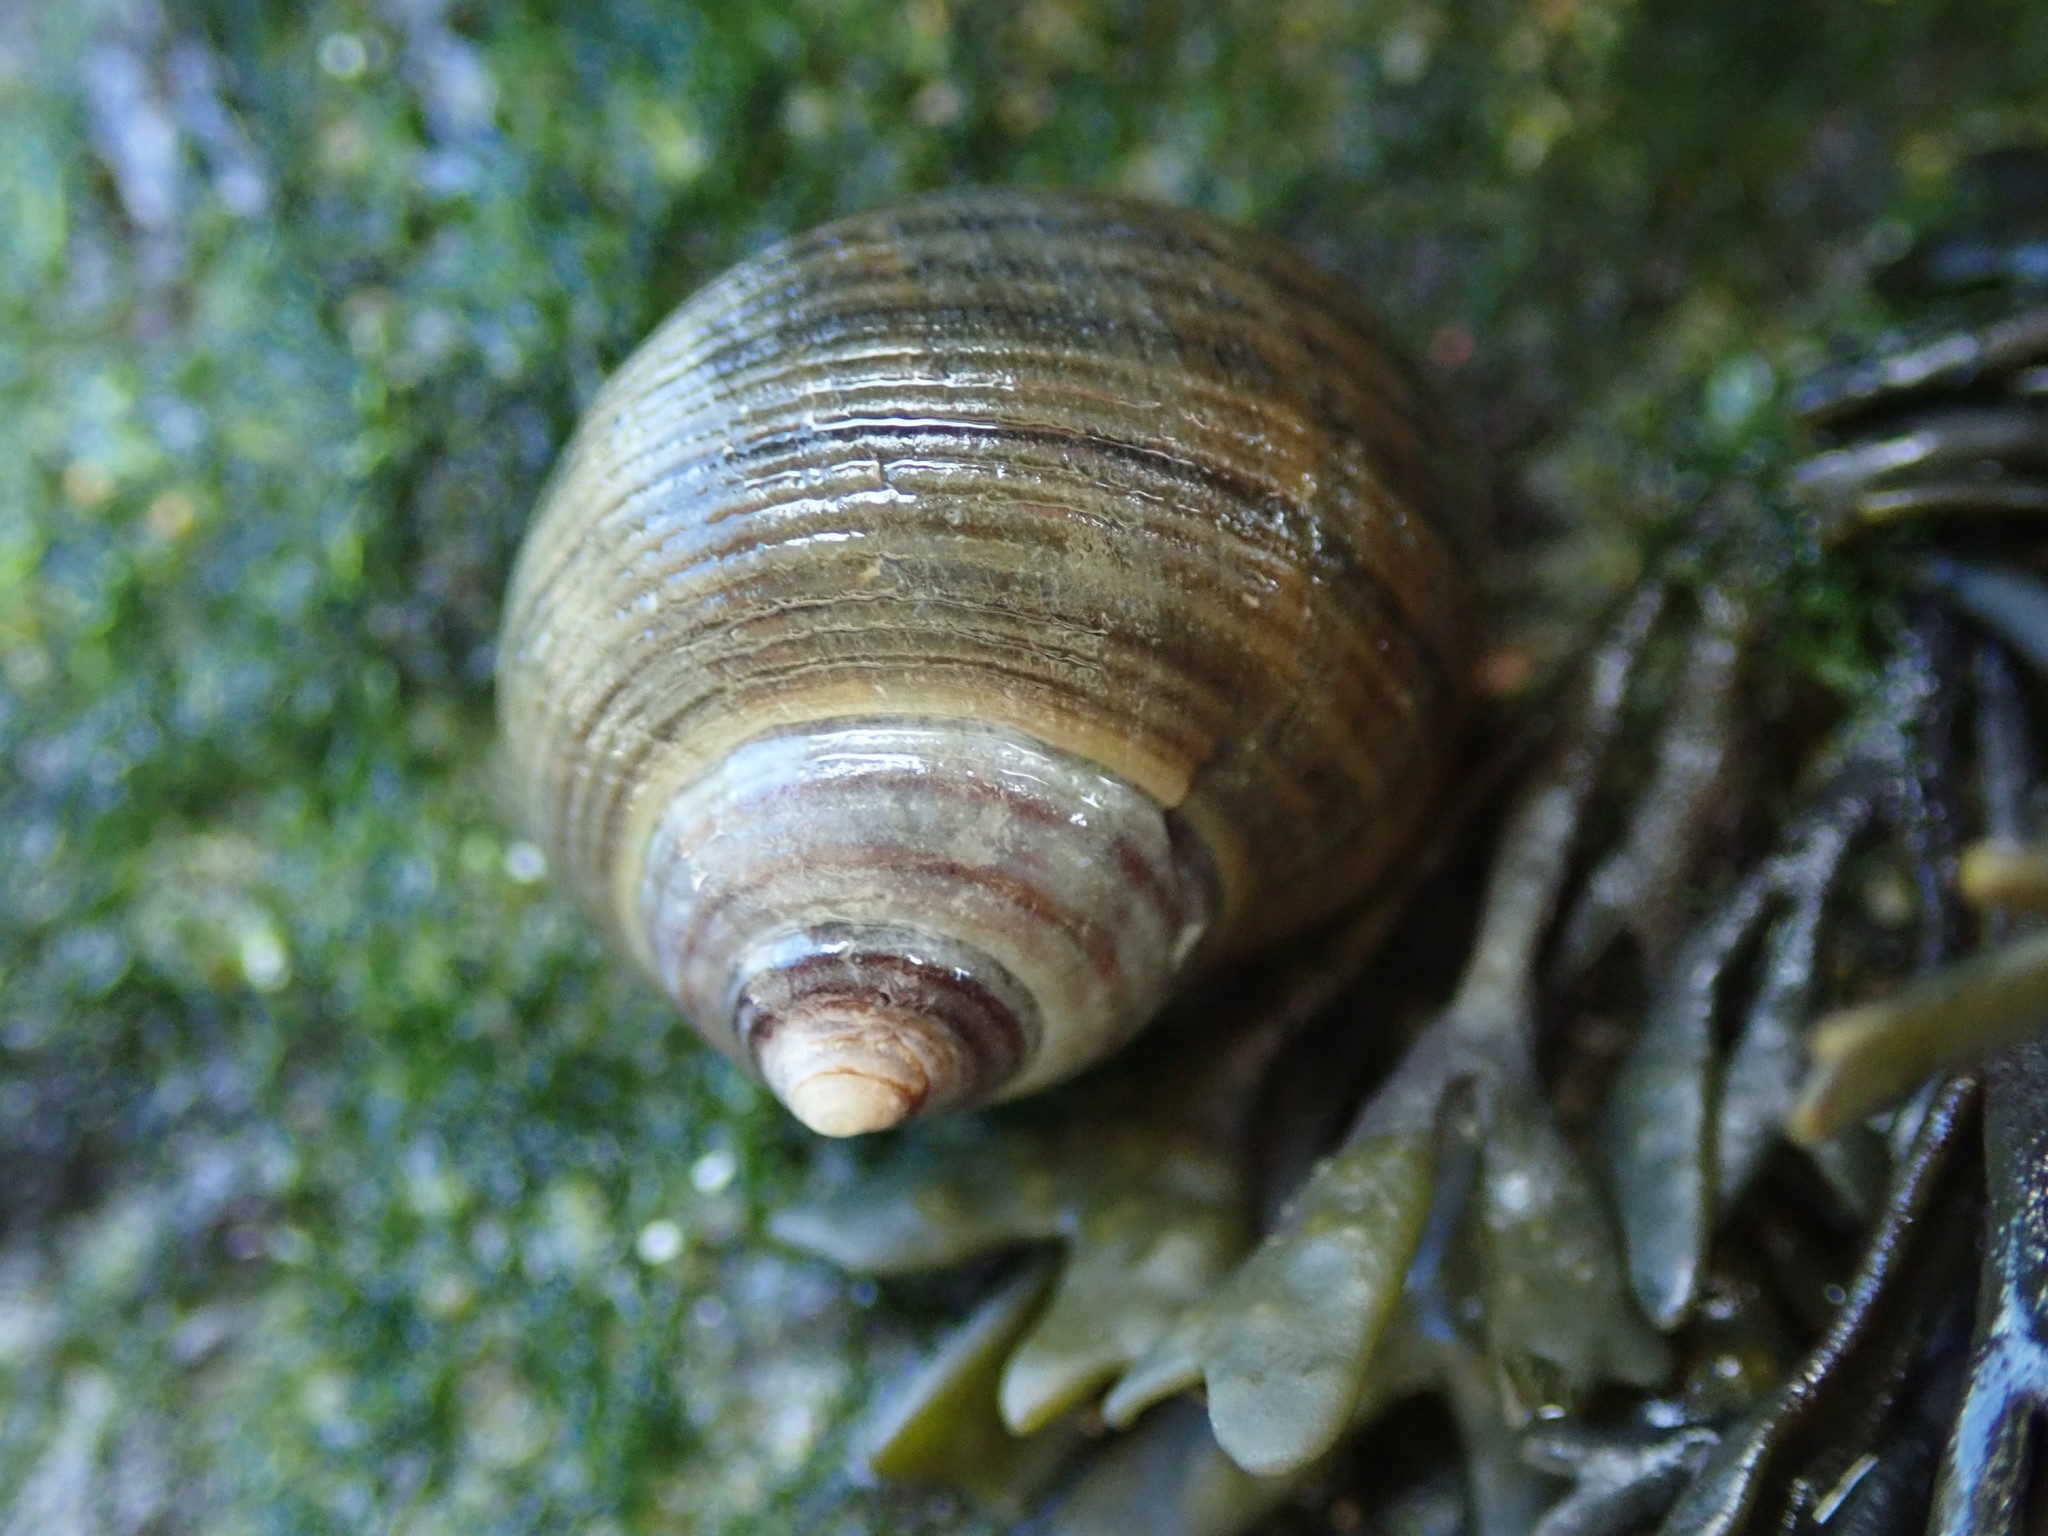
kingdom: Animalia
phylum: Mollusca
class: Gastropoda
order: Littorinimorpha
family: Littorinidae
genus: Littorina
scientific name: Littorina littorea
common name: Common periwinkle
